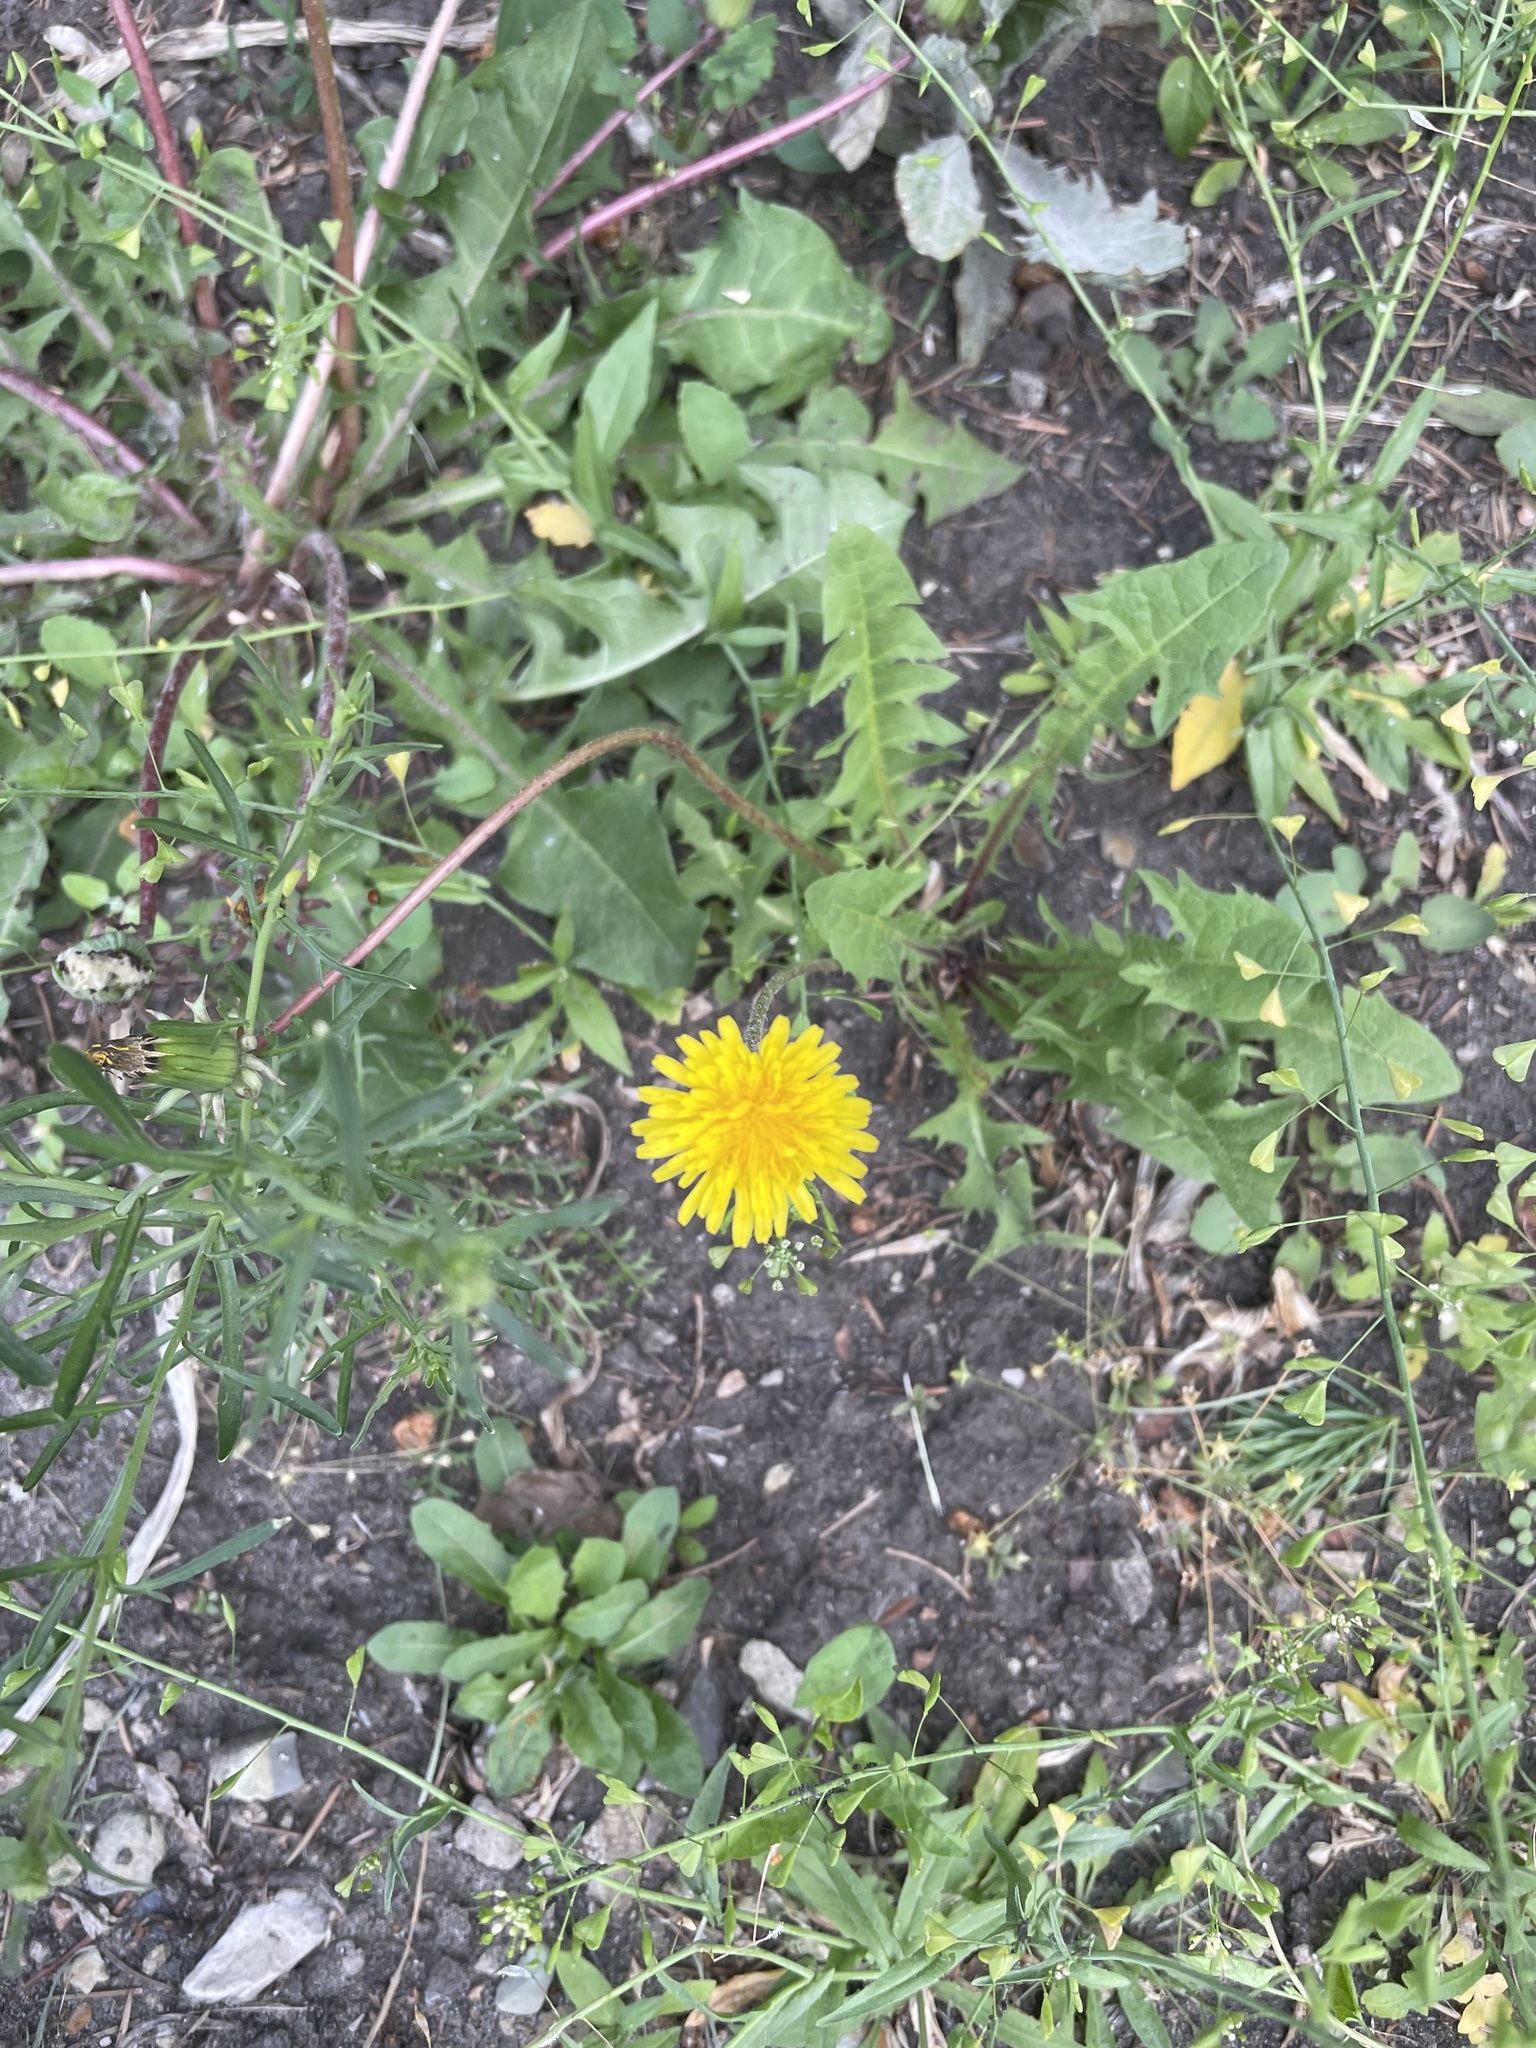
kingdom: Plantae
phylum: Tracheophyta
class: Magnoliopsida
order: Asterales
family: Asteraceae
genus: Taraxacum
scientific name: Taraxacum officinale
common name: Common dandelion
